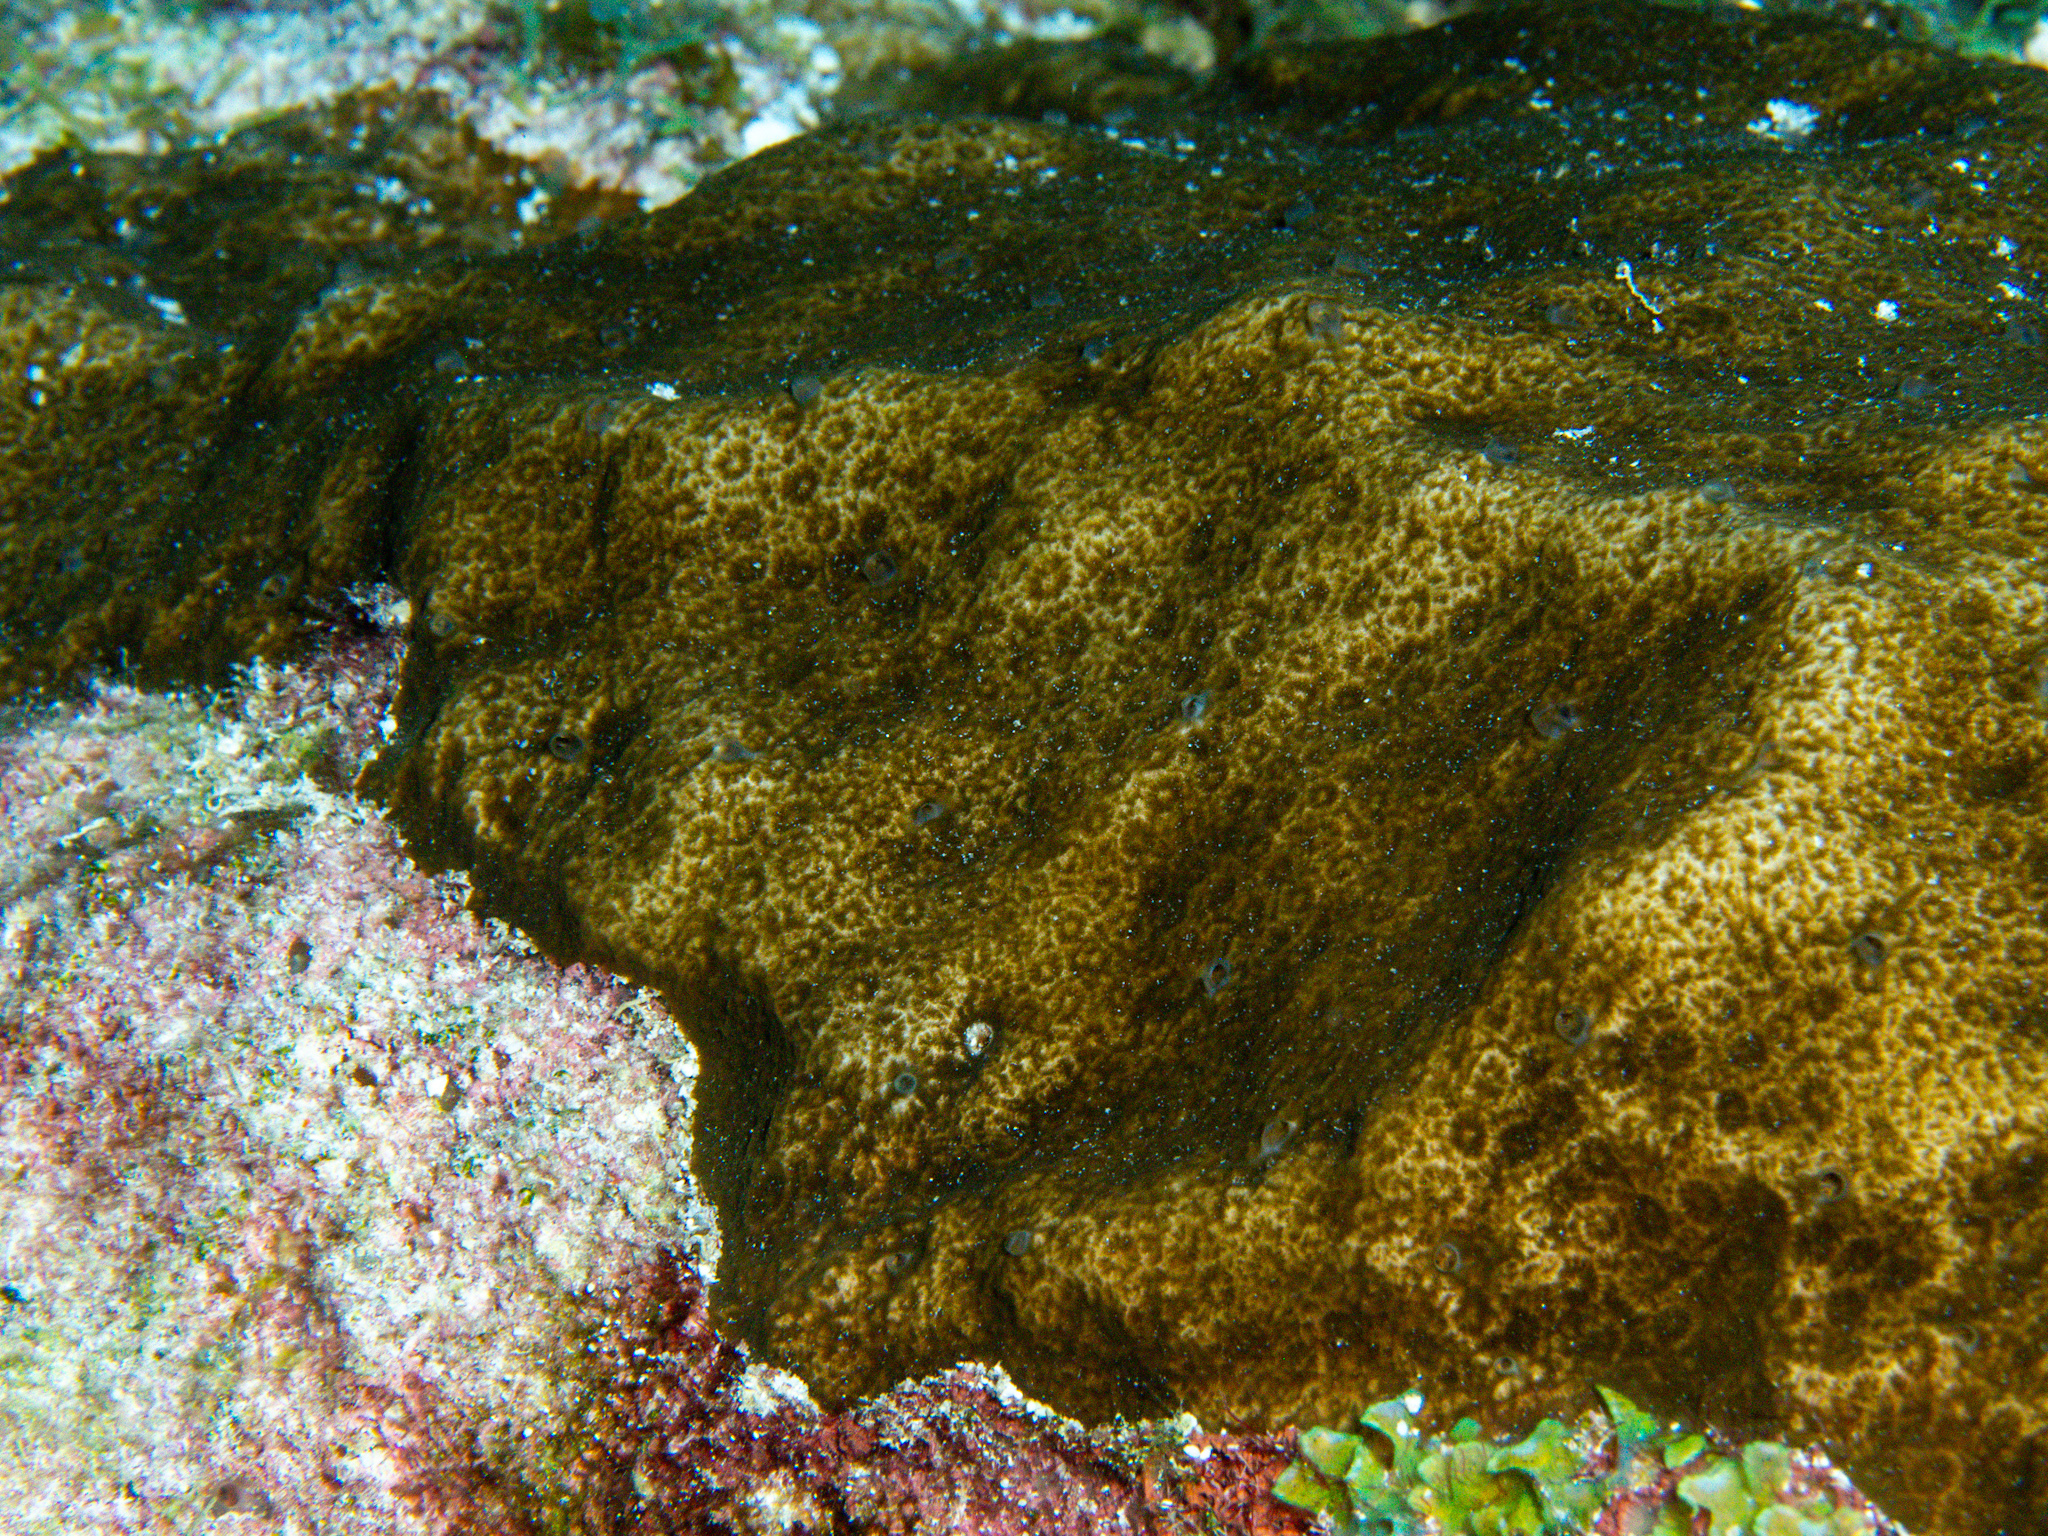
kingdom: Animalia
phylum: Porifera
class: Demospongiae
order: Clionaida
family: Clionaidae
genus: Cliona
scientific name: Cliona caribbaea
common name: Green boring sponge
